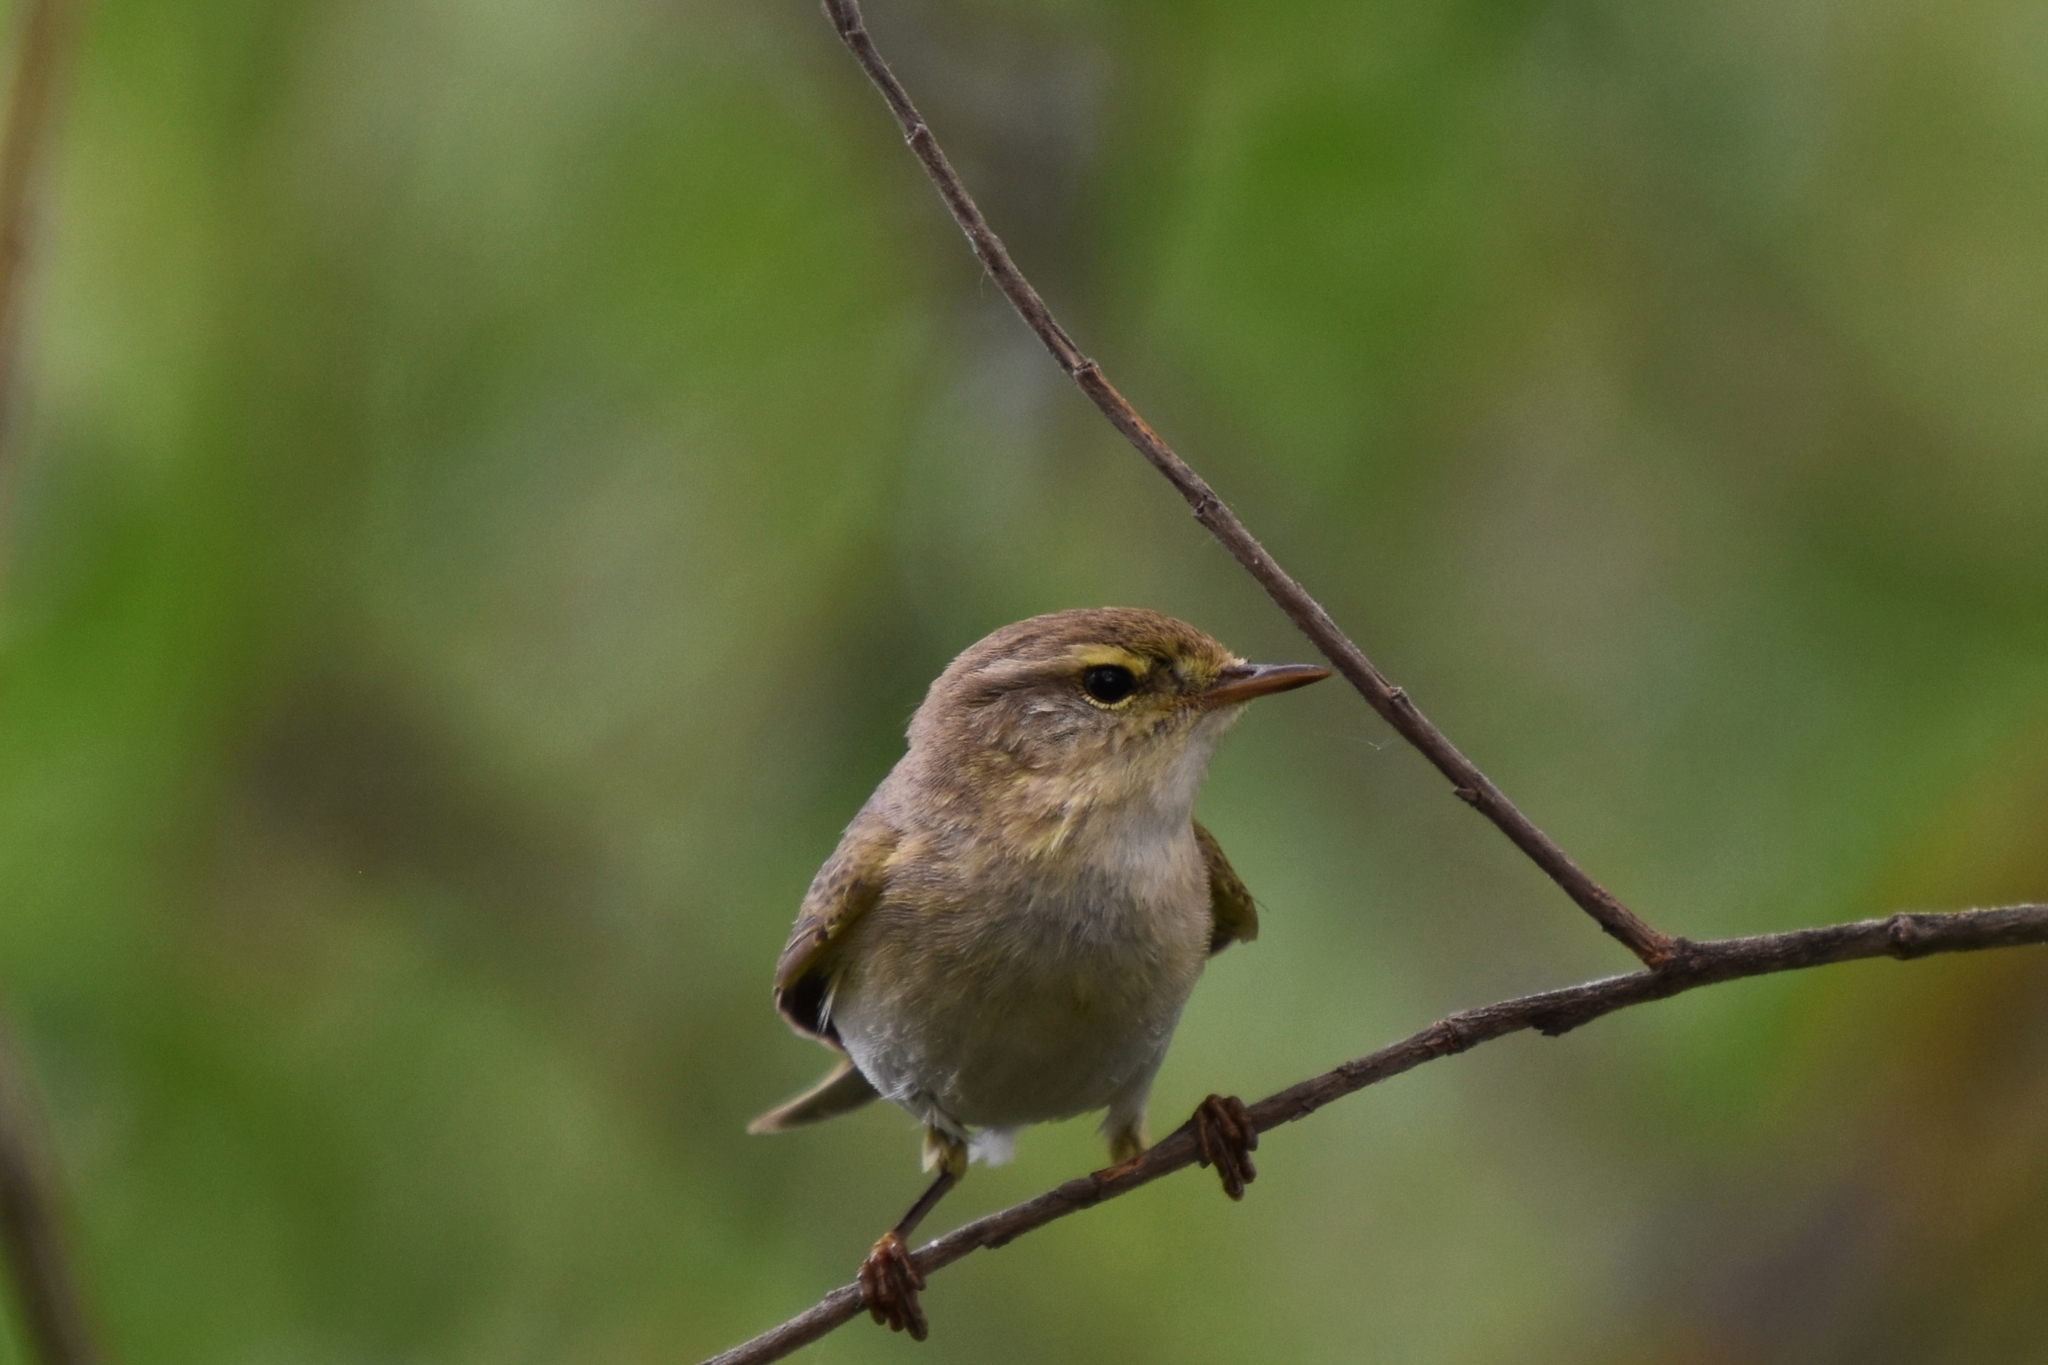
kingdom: Animalia
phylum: Chordata
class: Aves
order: Passeriformes
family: Phylloscopidae
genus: Phylloscopus
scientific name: Phylloscopus trochilus
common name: Willow warbler
